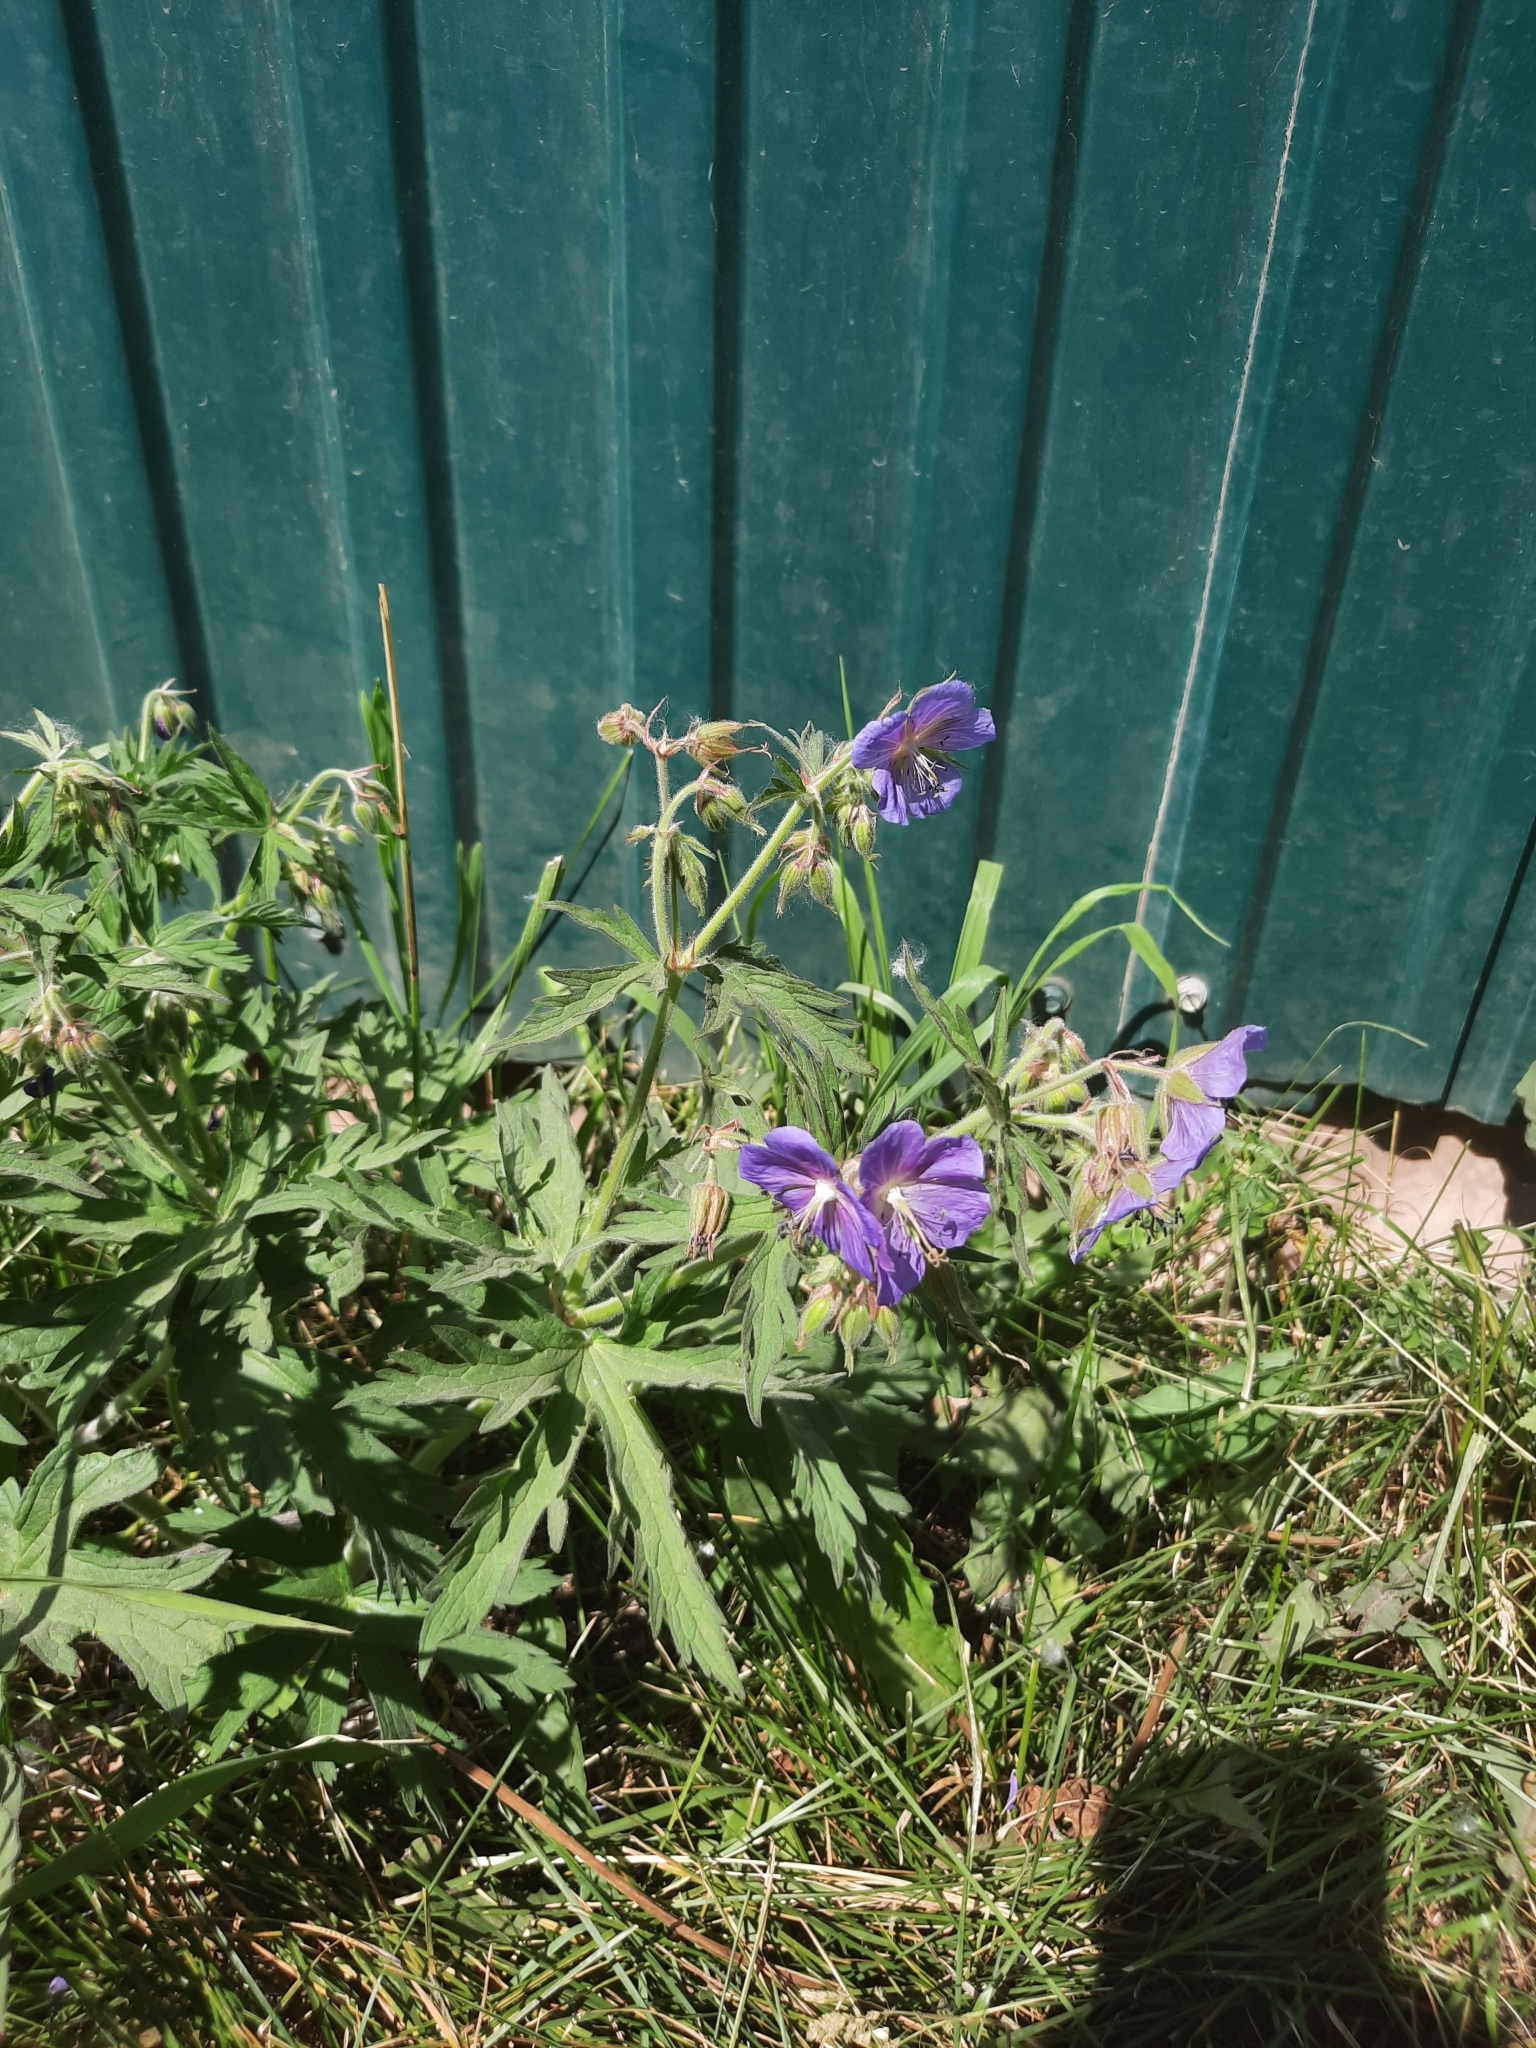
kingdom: Plantae
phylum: Tracheophyta
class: Magnoliopsida
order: Geraniales
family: Geraniaceae
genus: Geranium
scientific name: Geranium pratense
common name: Meadow crane's-bill
